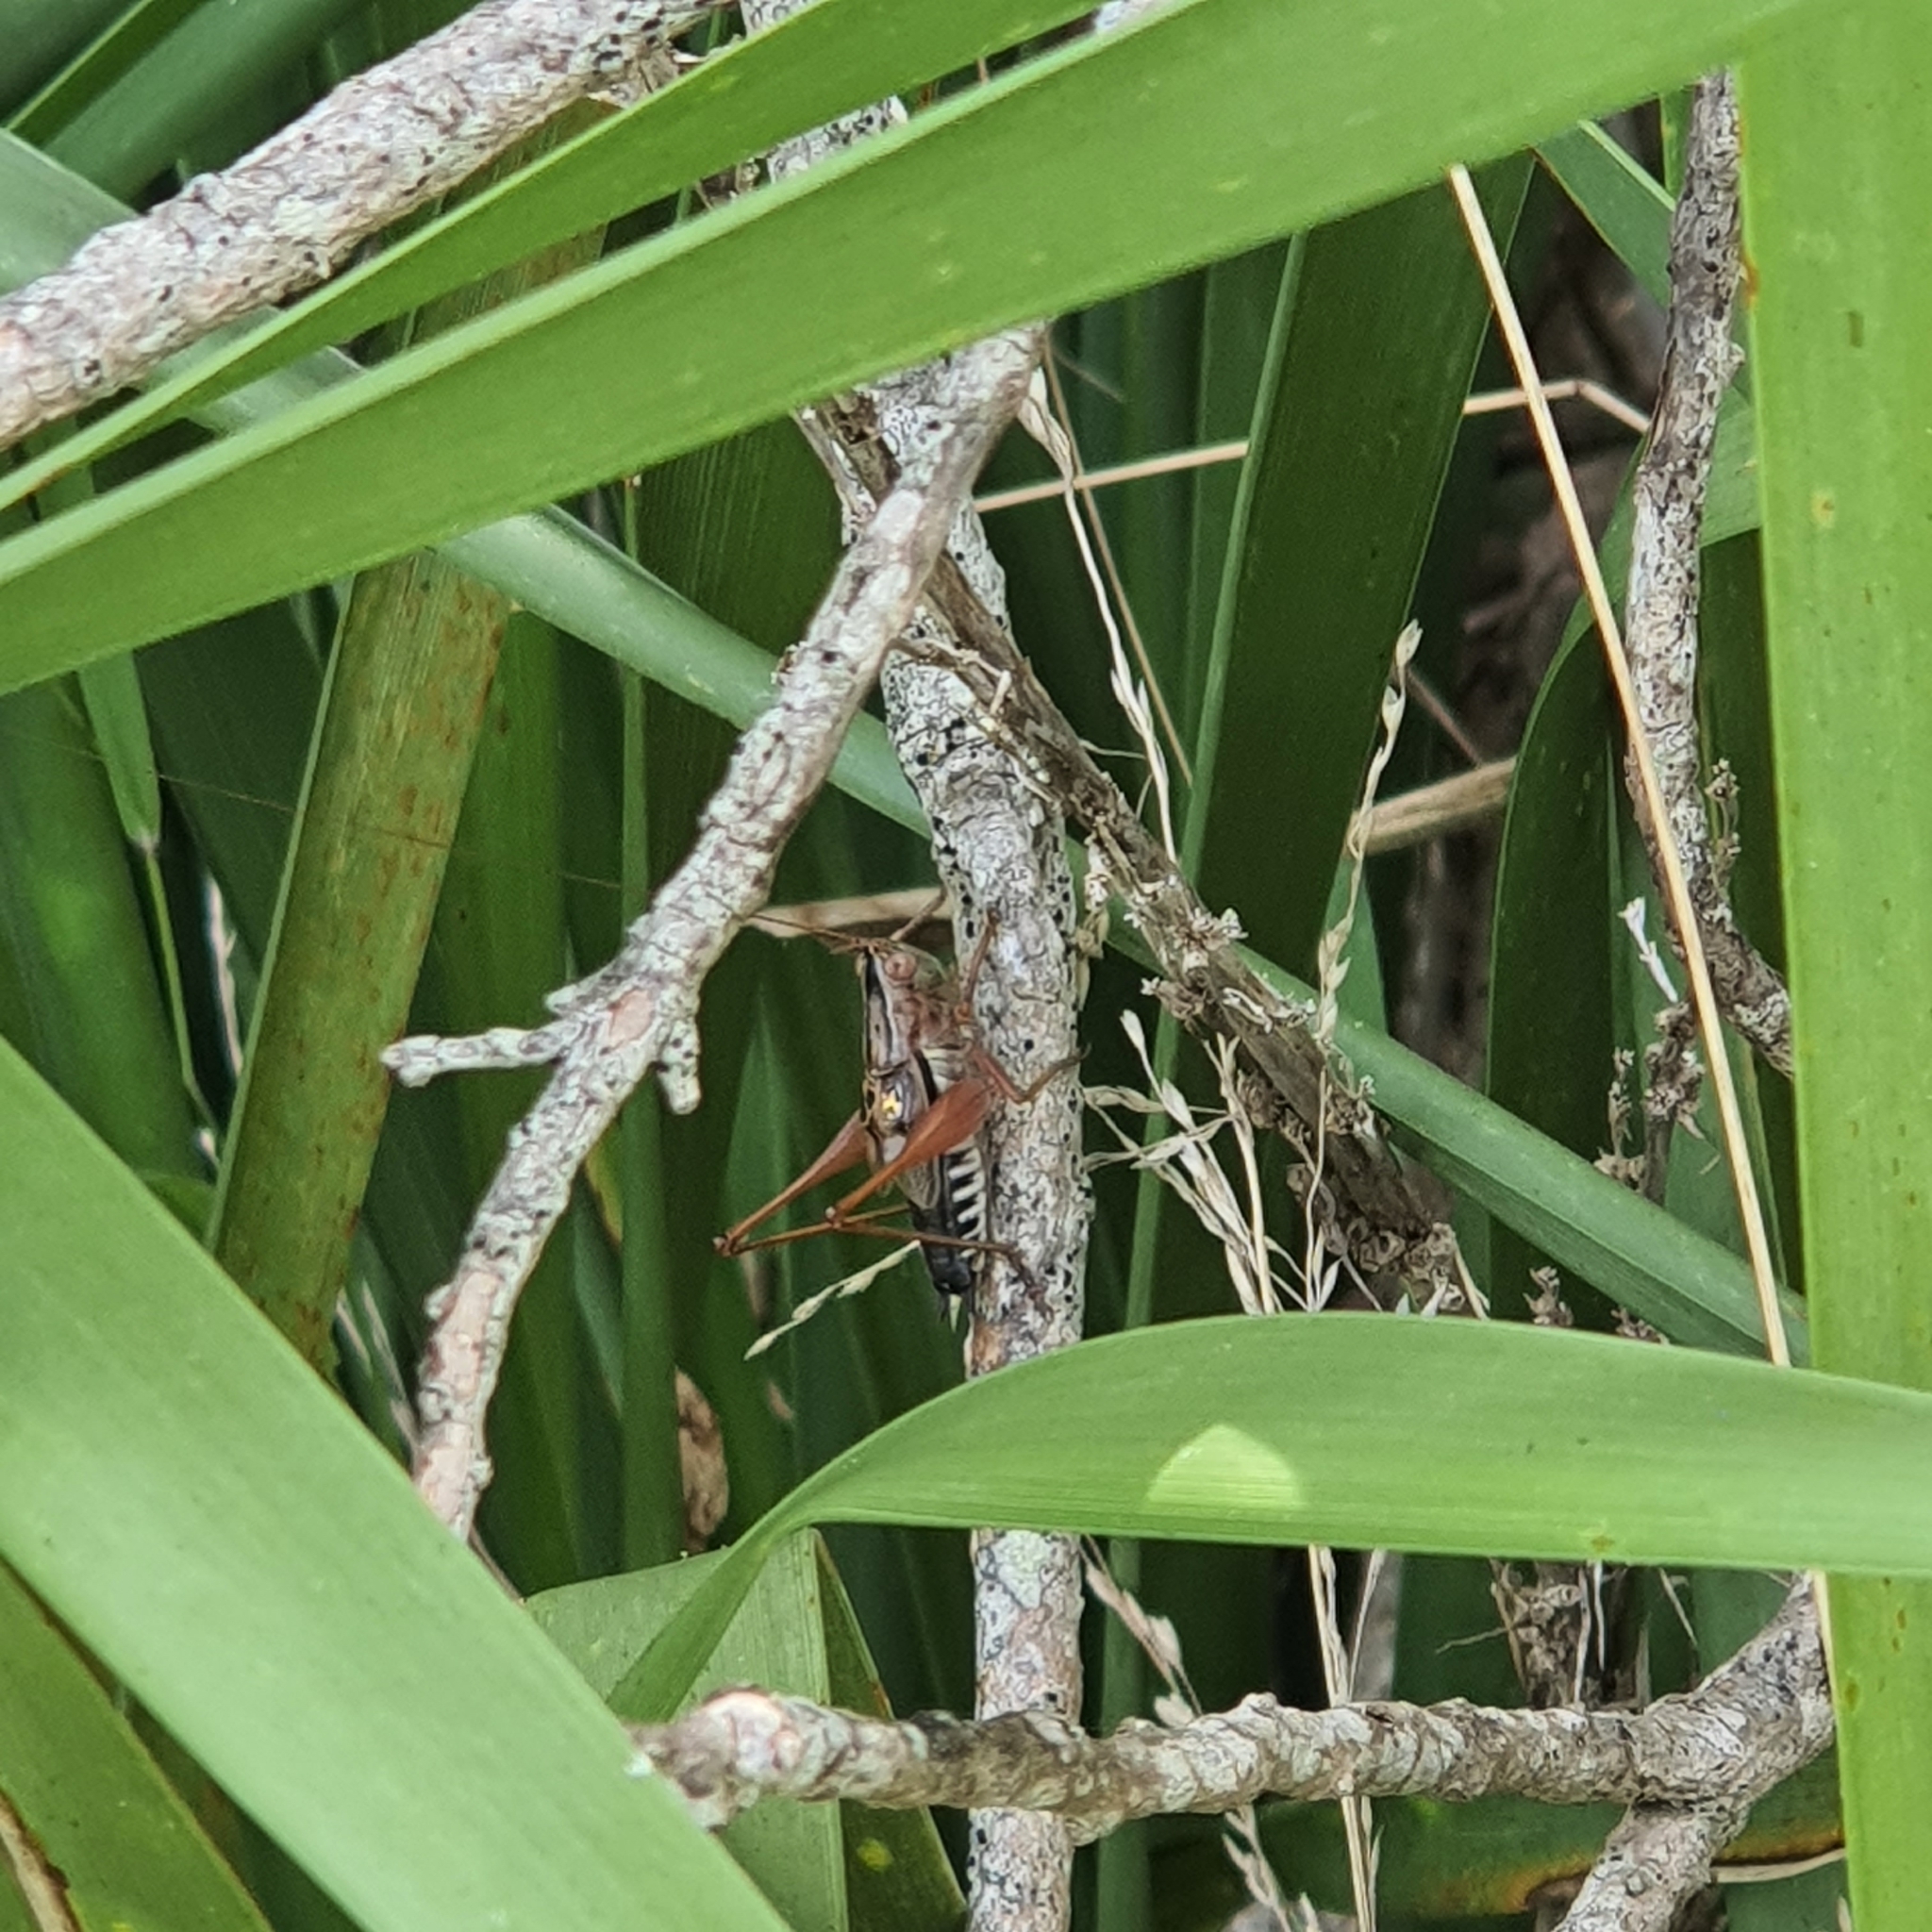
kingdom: Animalia
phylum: Arthropoda
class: Insecta
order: Orthoptera
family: Tettigoniidae
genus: Conocephalus
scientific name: Conocephalus semivittatus
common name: Blackish meadow katydid
